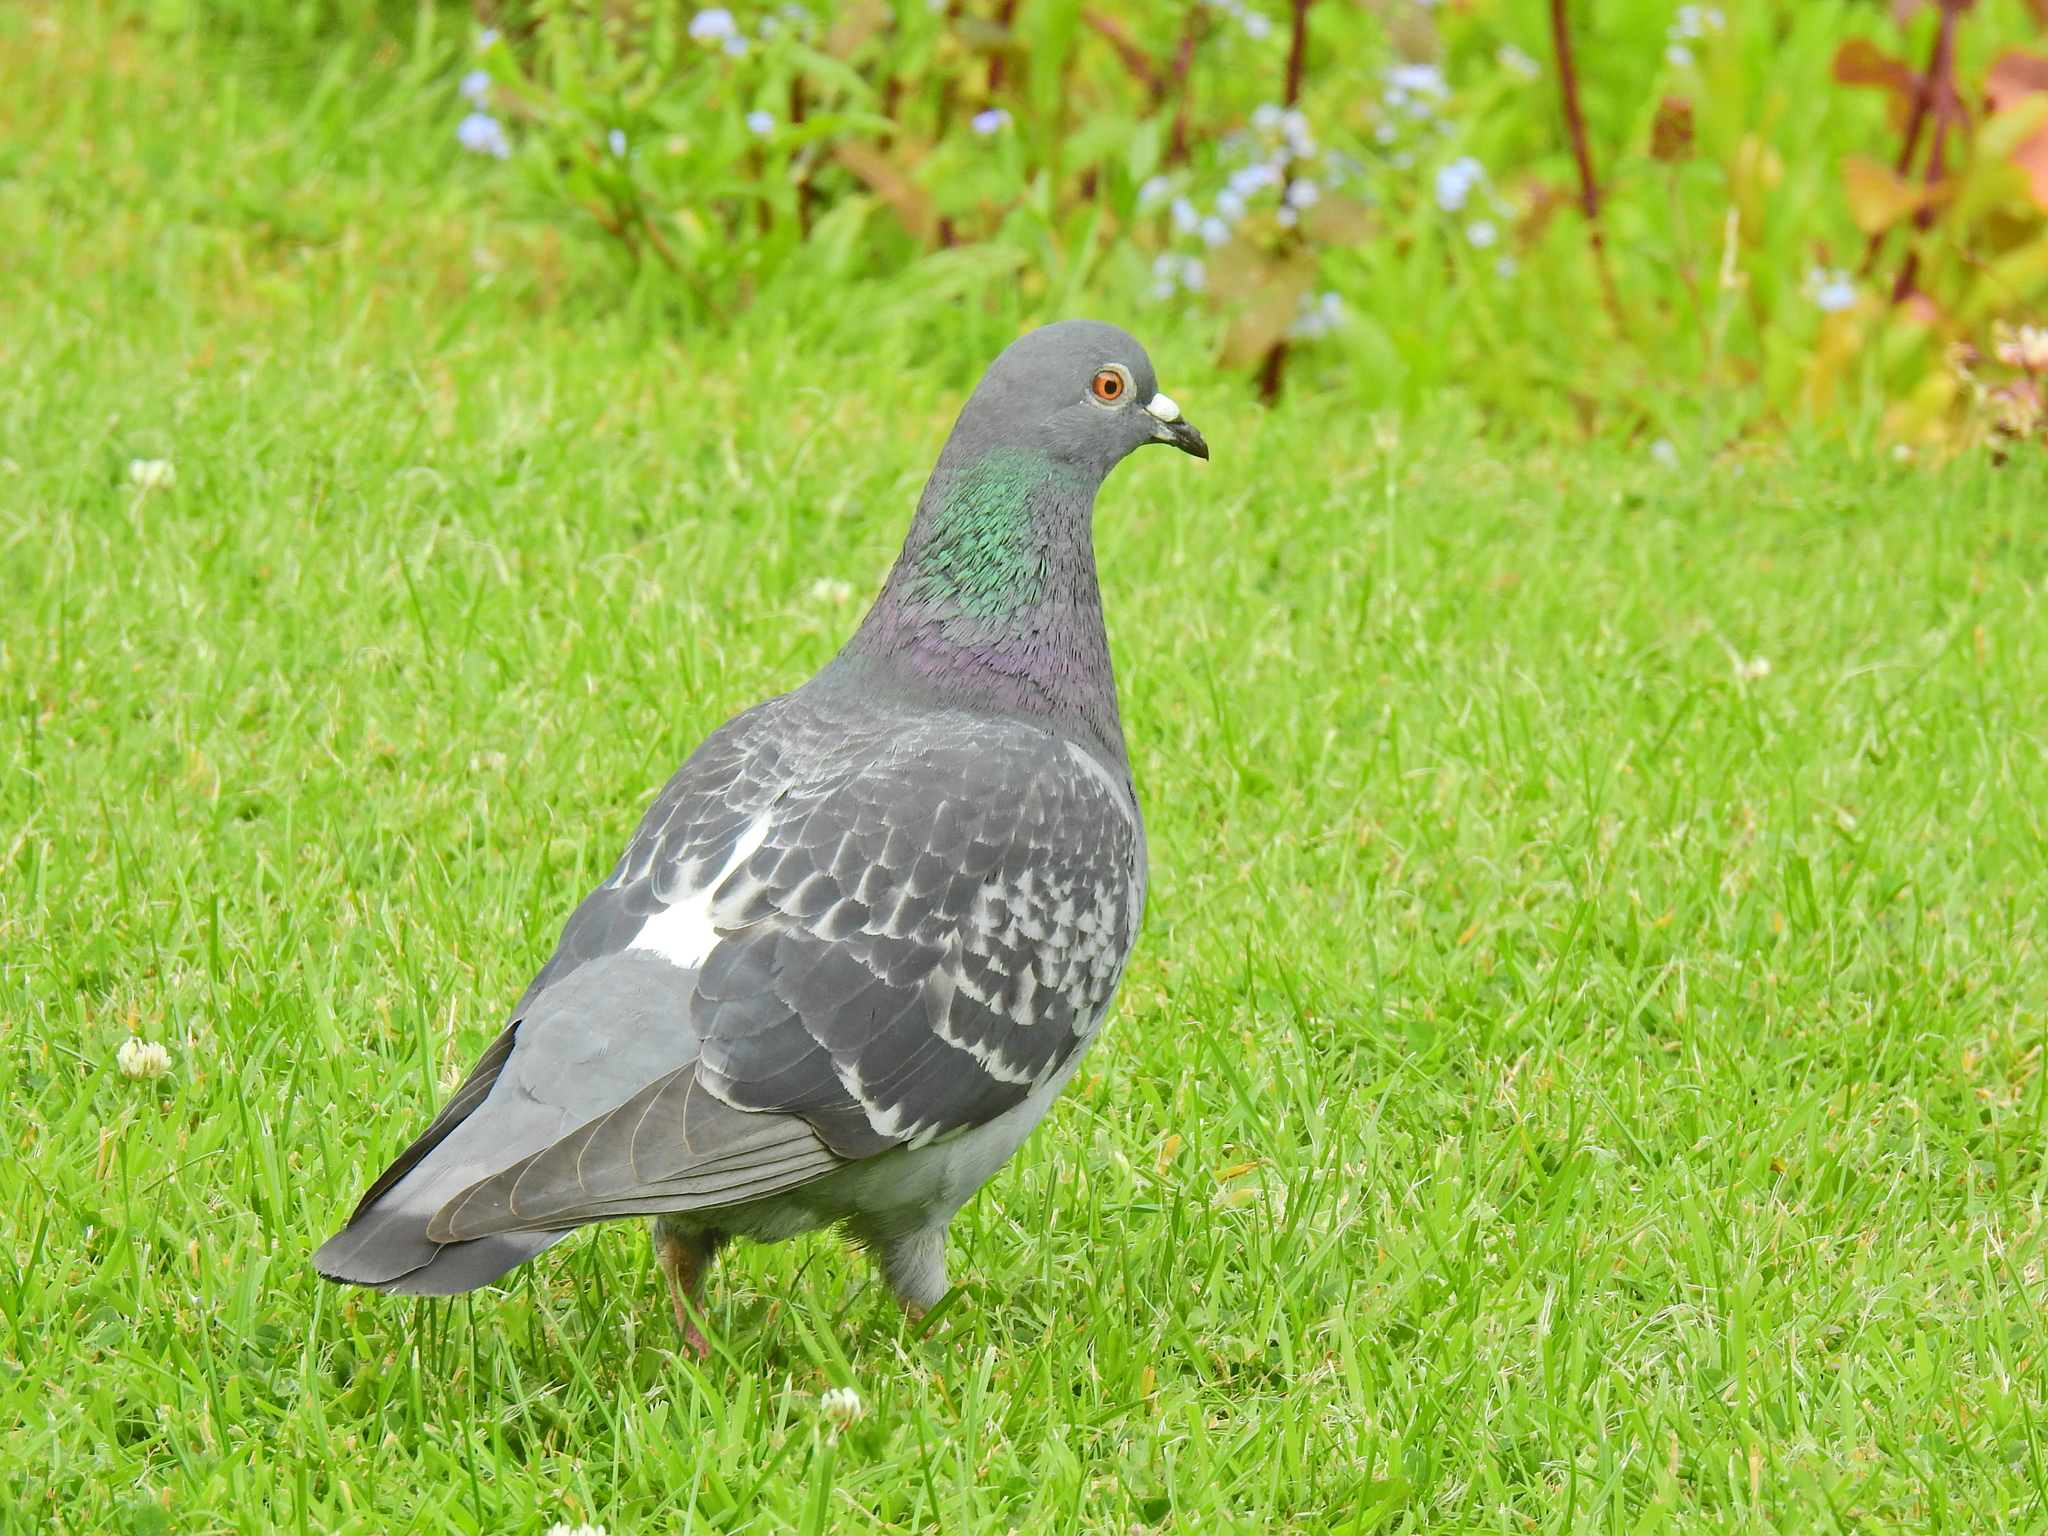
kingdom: Animalia
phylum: Chordata
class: Aves
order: Columbiformes
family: Columbidae
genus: Columba
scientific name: Columba livia
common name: Rock pigeon
